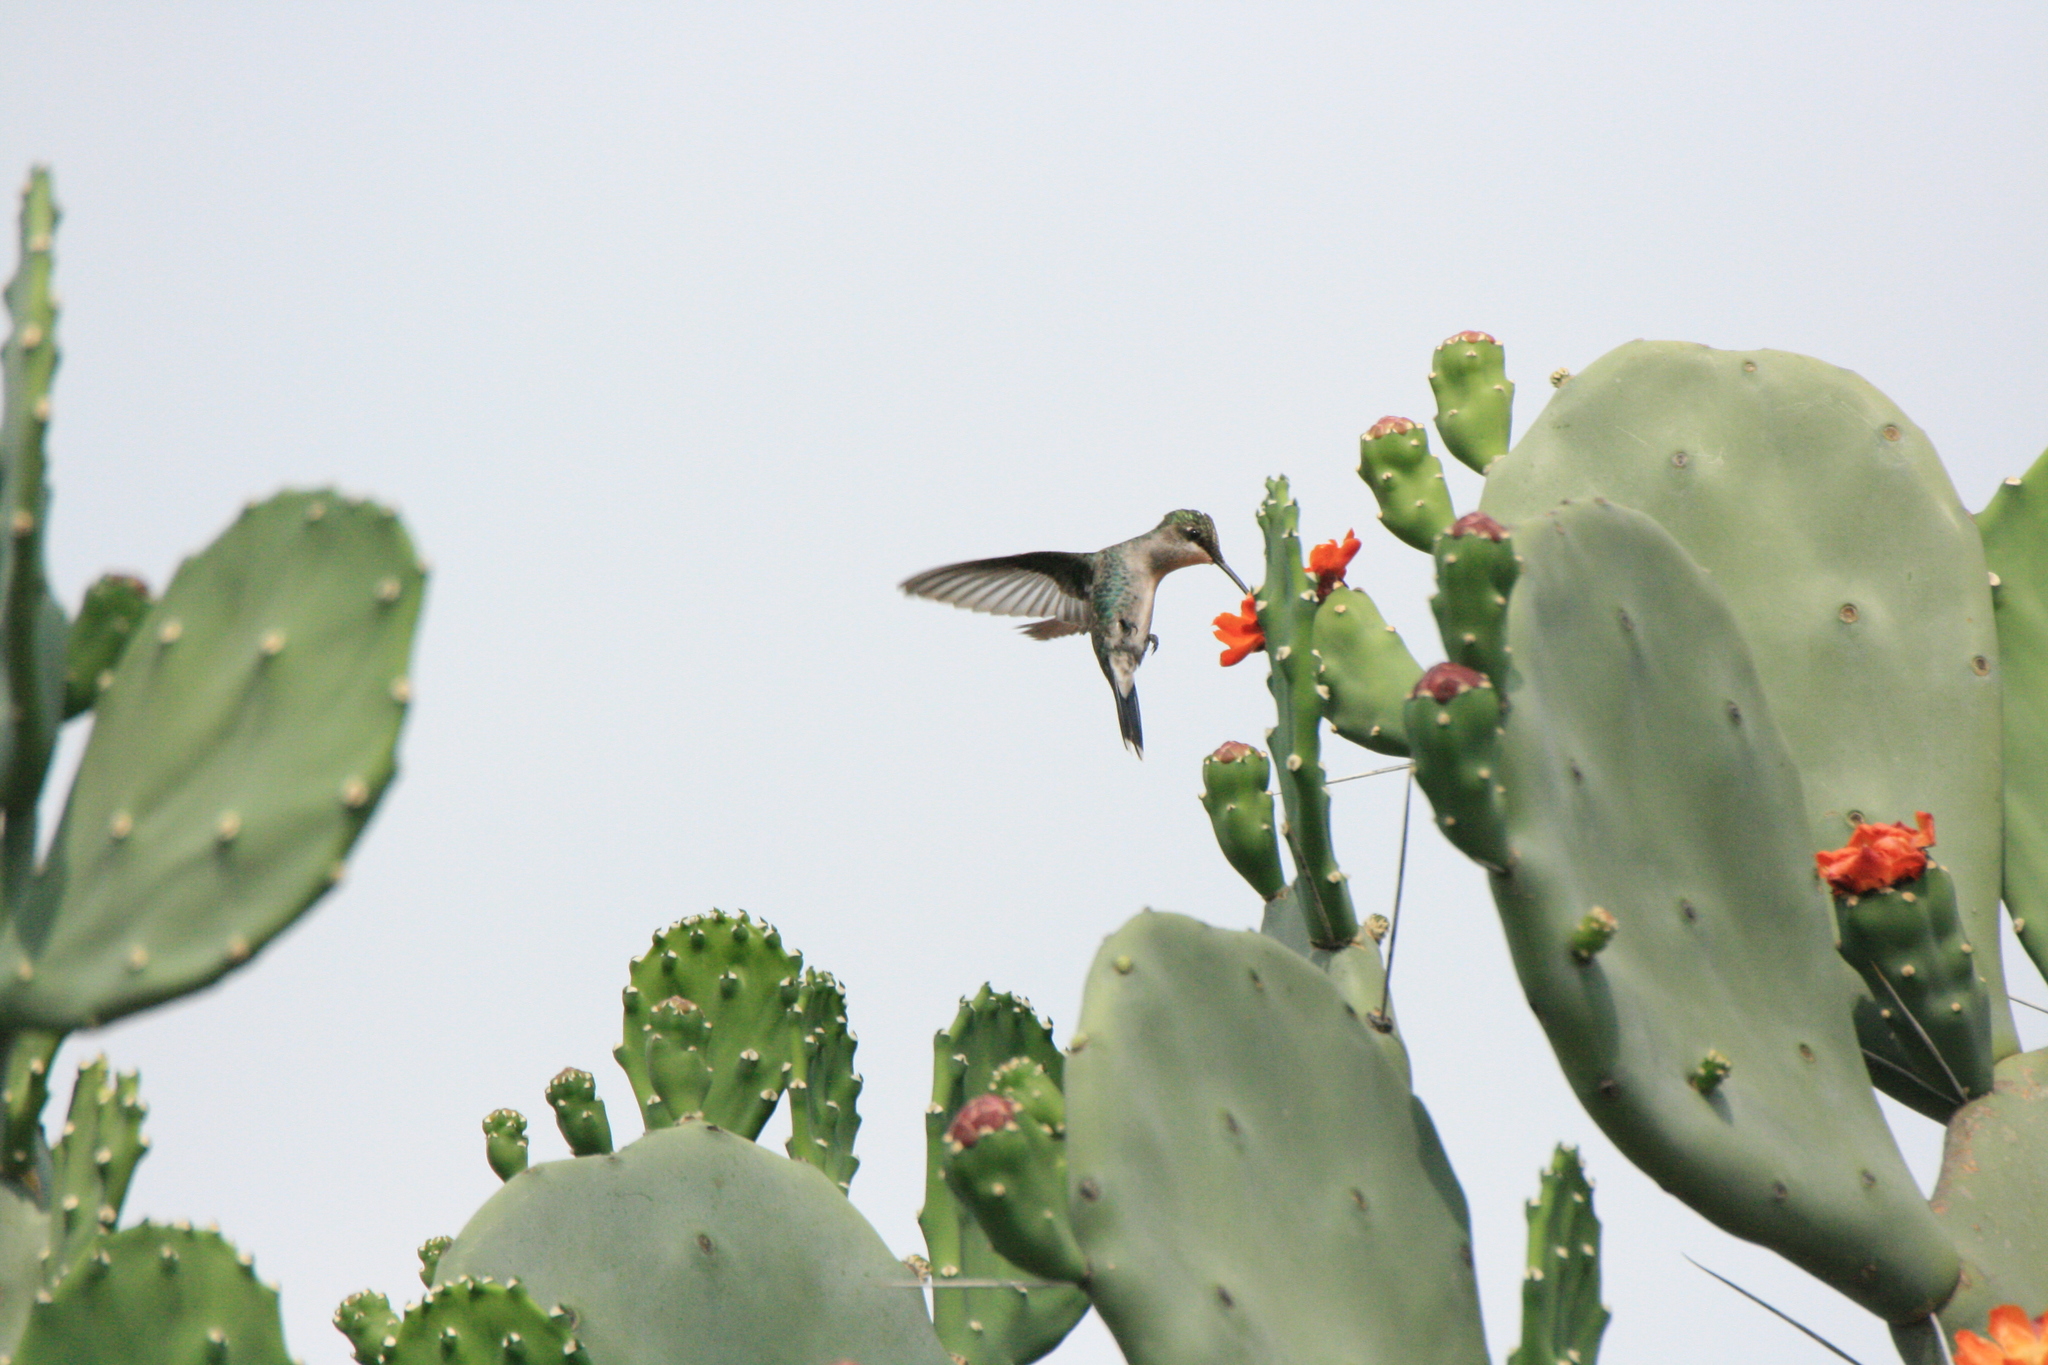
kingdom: Animalia
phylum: Chordata
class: Aves
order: Apodiformes
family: Trochilidae
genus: Heliomaster
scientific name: Heliomaster furcifer
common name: Blue-tufted starthroat
